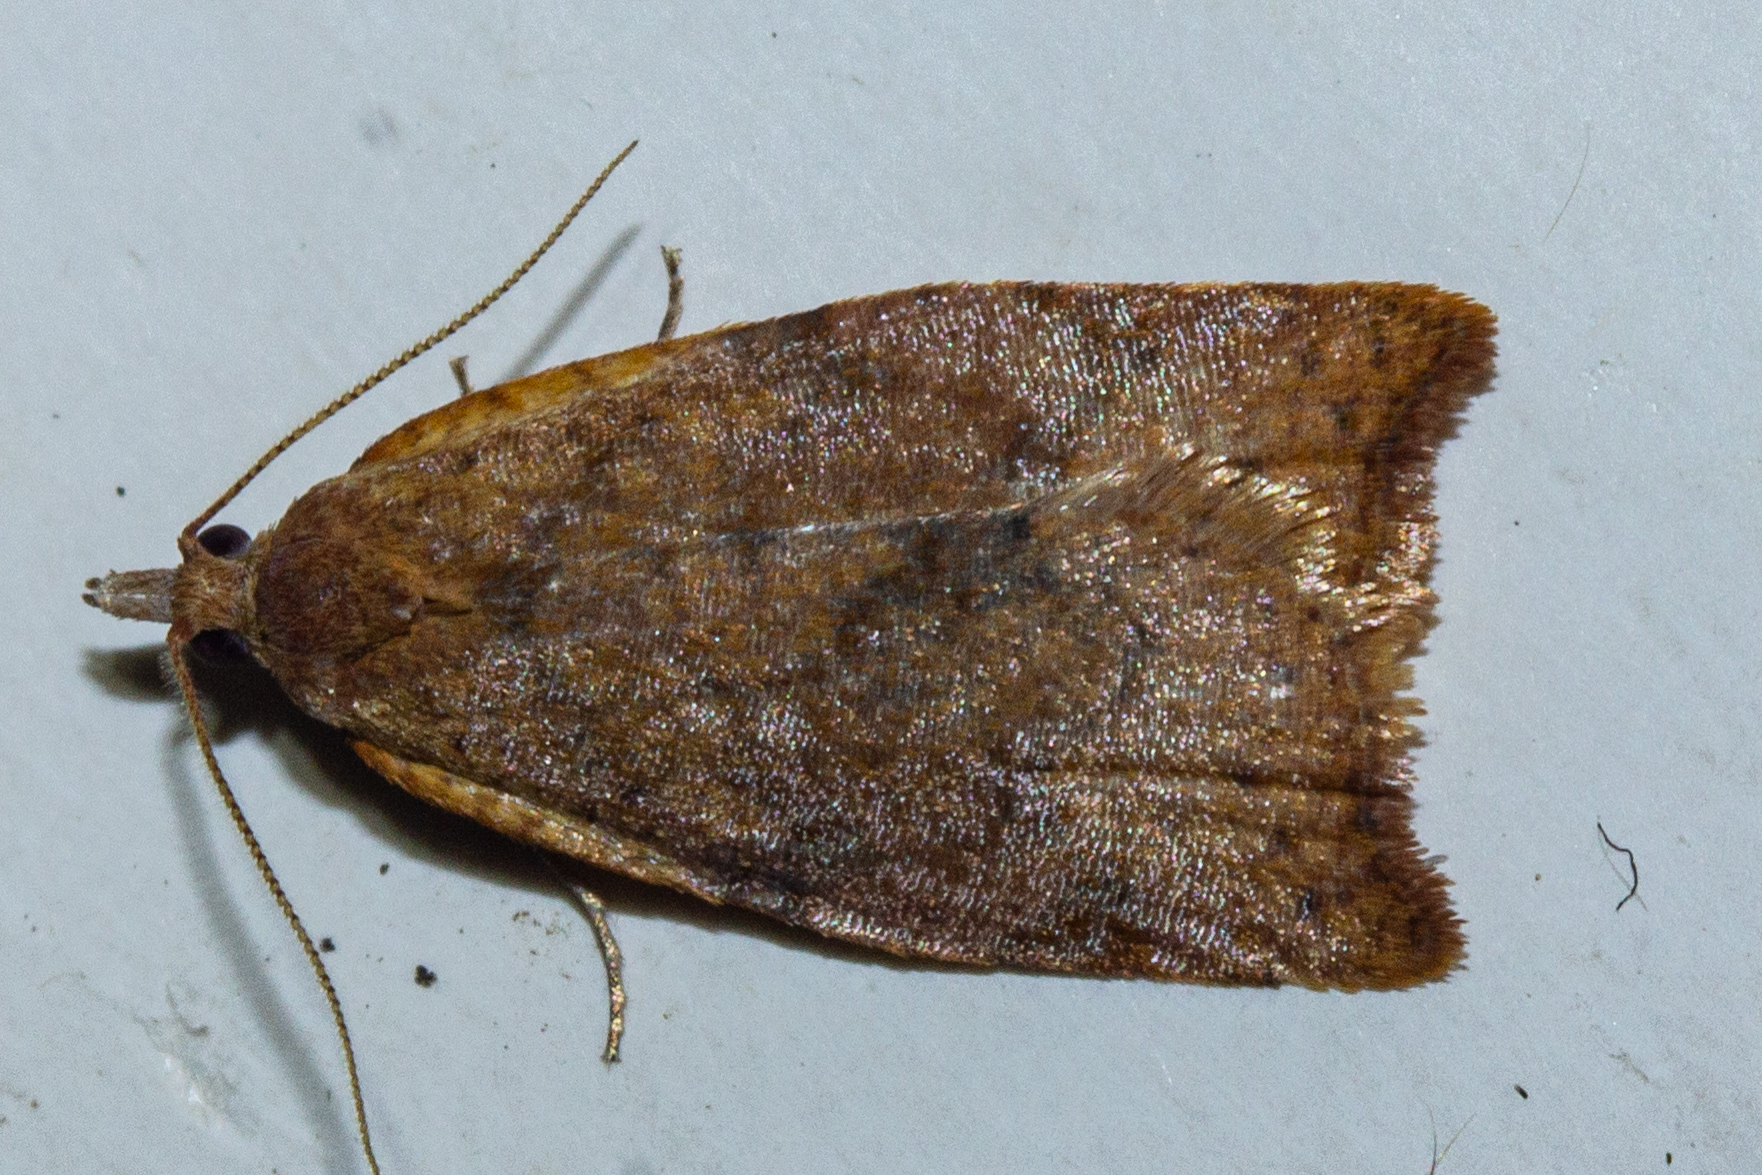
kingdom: Animalia
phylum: Arthropoda
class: Insecta
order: Lepidoptera
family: Tortricidae
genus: Apoctena
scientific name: Apoctena flavescens
